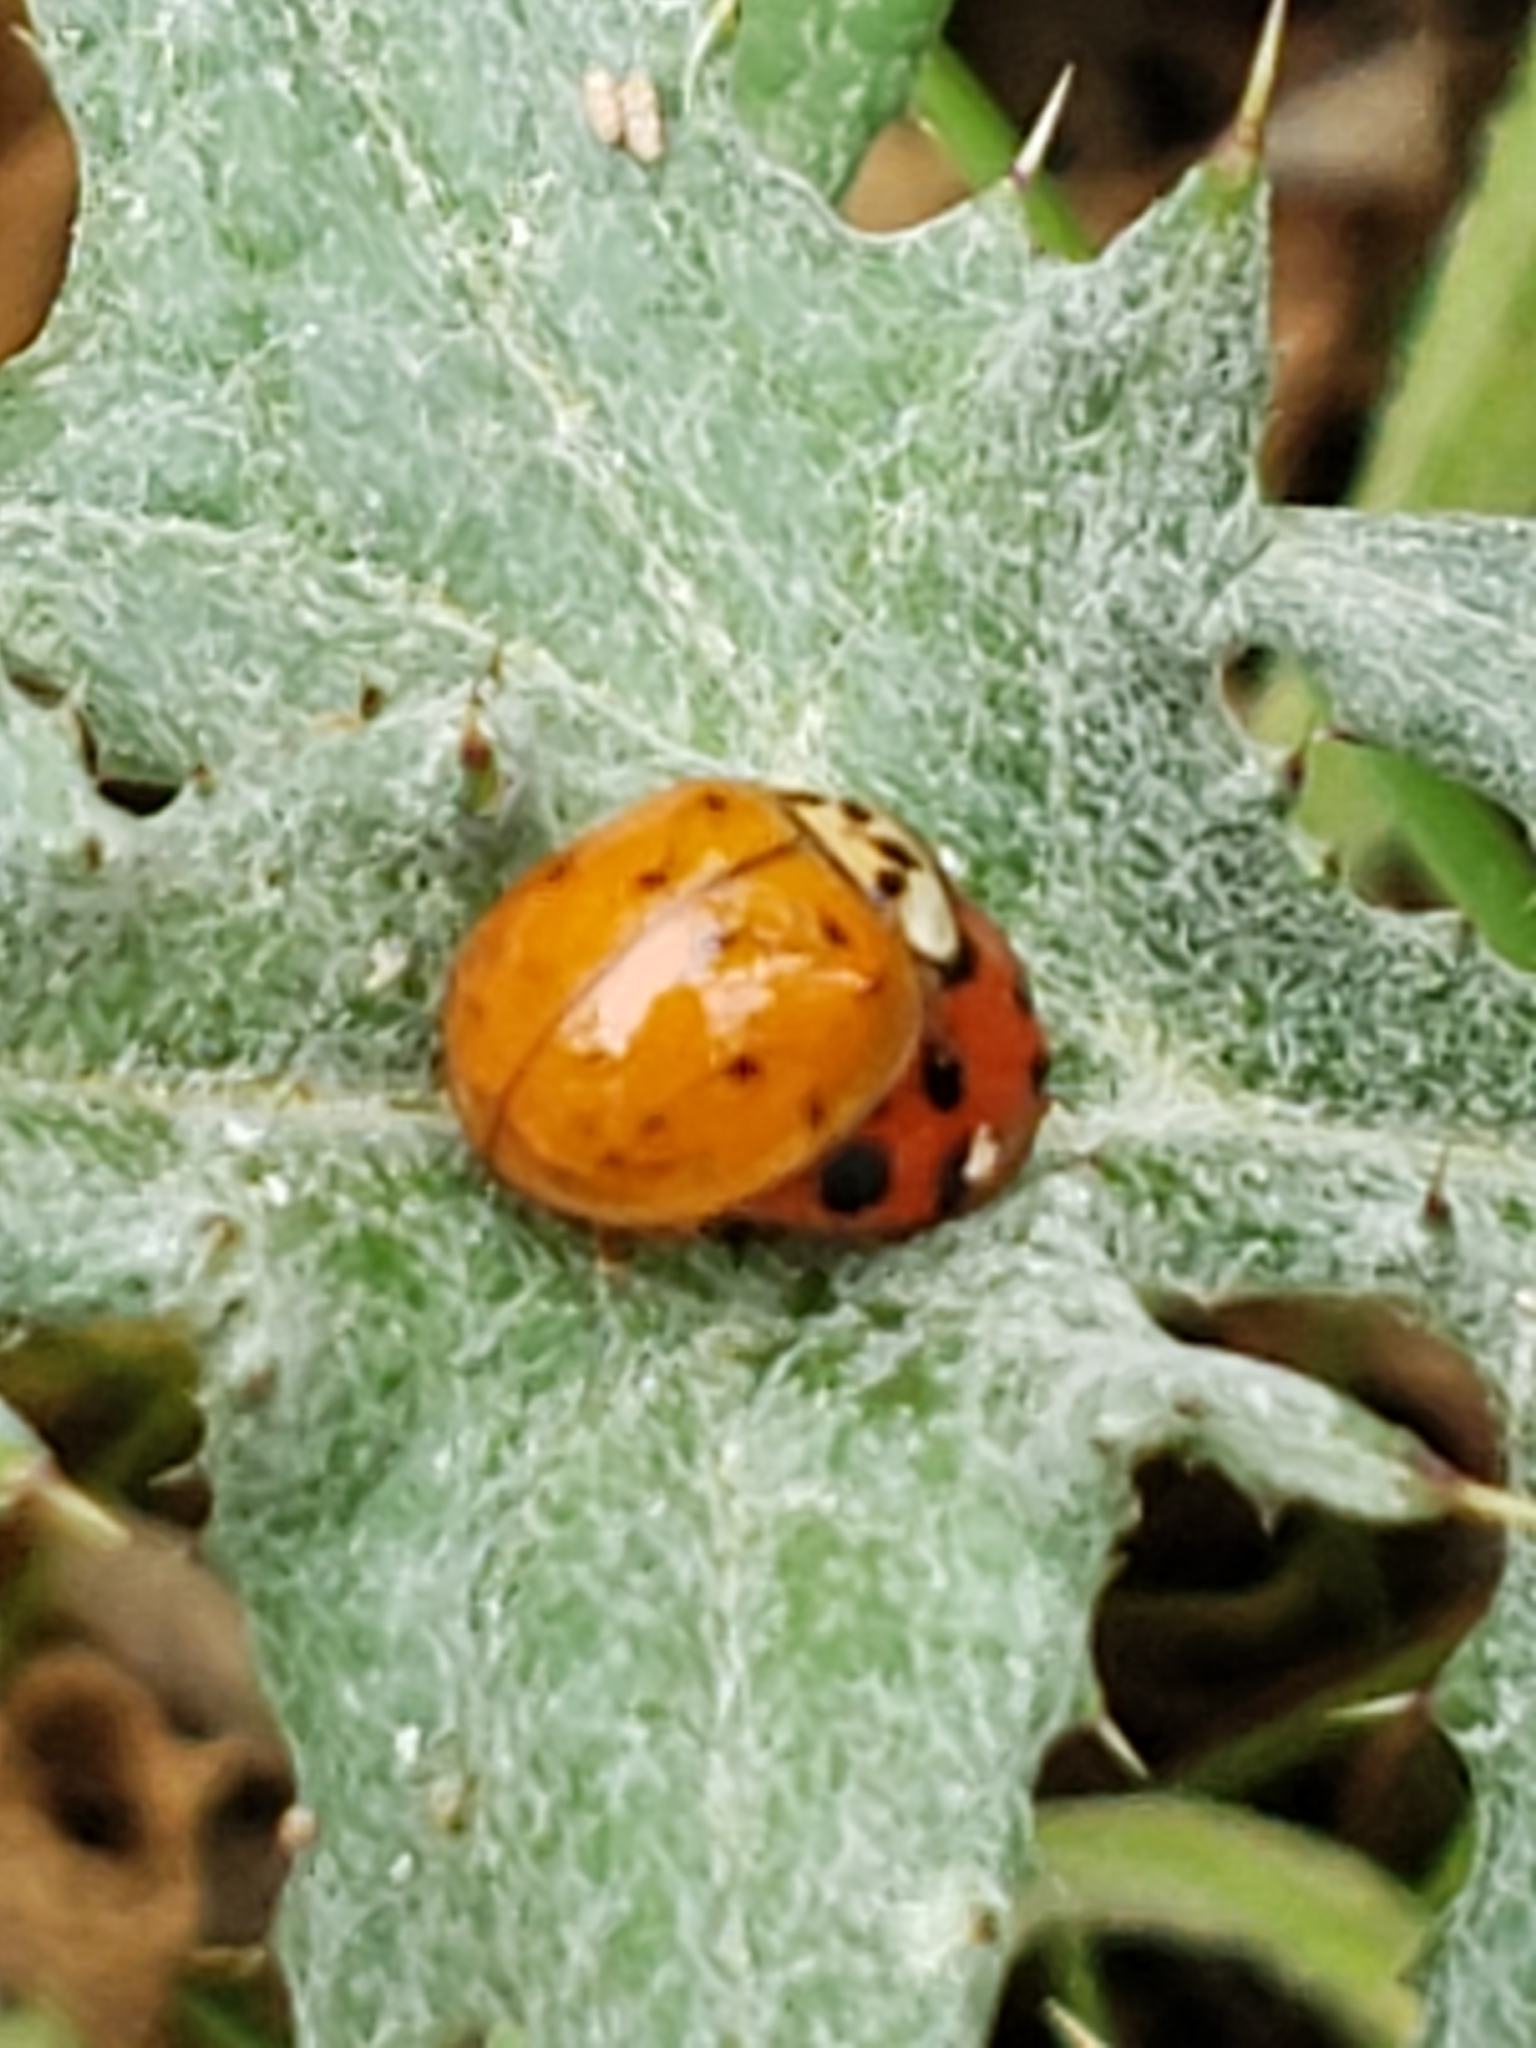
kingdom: Animalia
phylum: Arthropoda
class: Insecta
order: Coleoptera
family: Coccinellidae
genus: Harmonia
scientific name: Harmonia axyridis
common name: Harlequin ladybird
